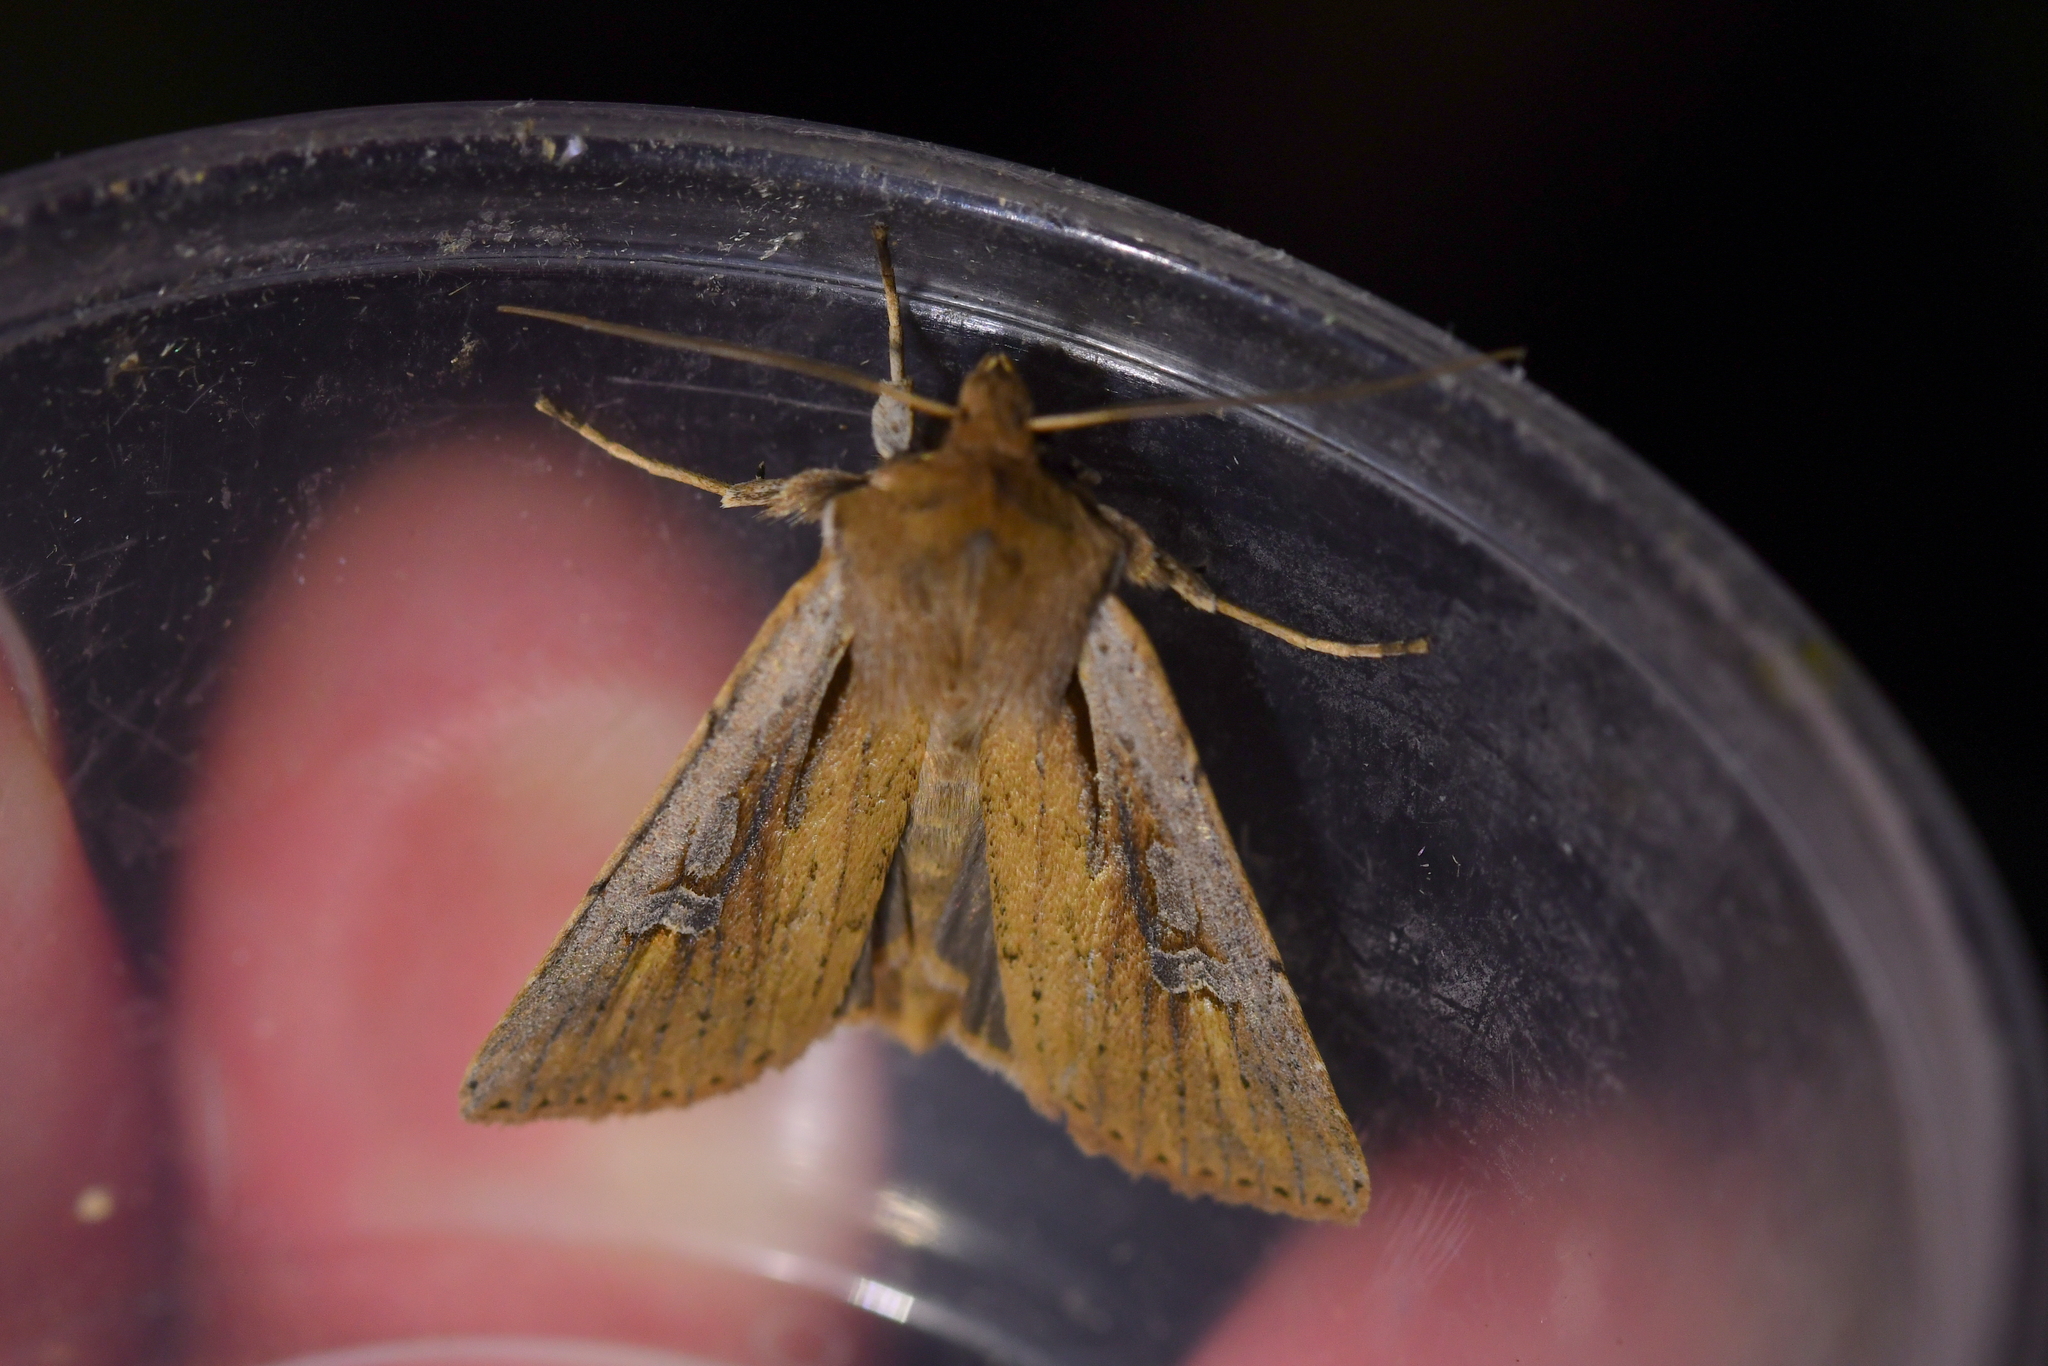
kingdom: Animalia
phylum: Arthropoda
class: Insecta
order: Lepidoptera
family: Noctuidae
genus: Ichneutica
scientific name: Ichneutica atristriga
